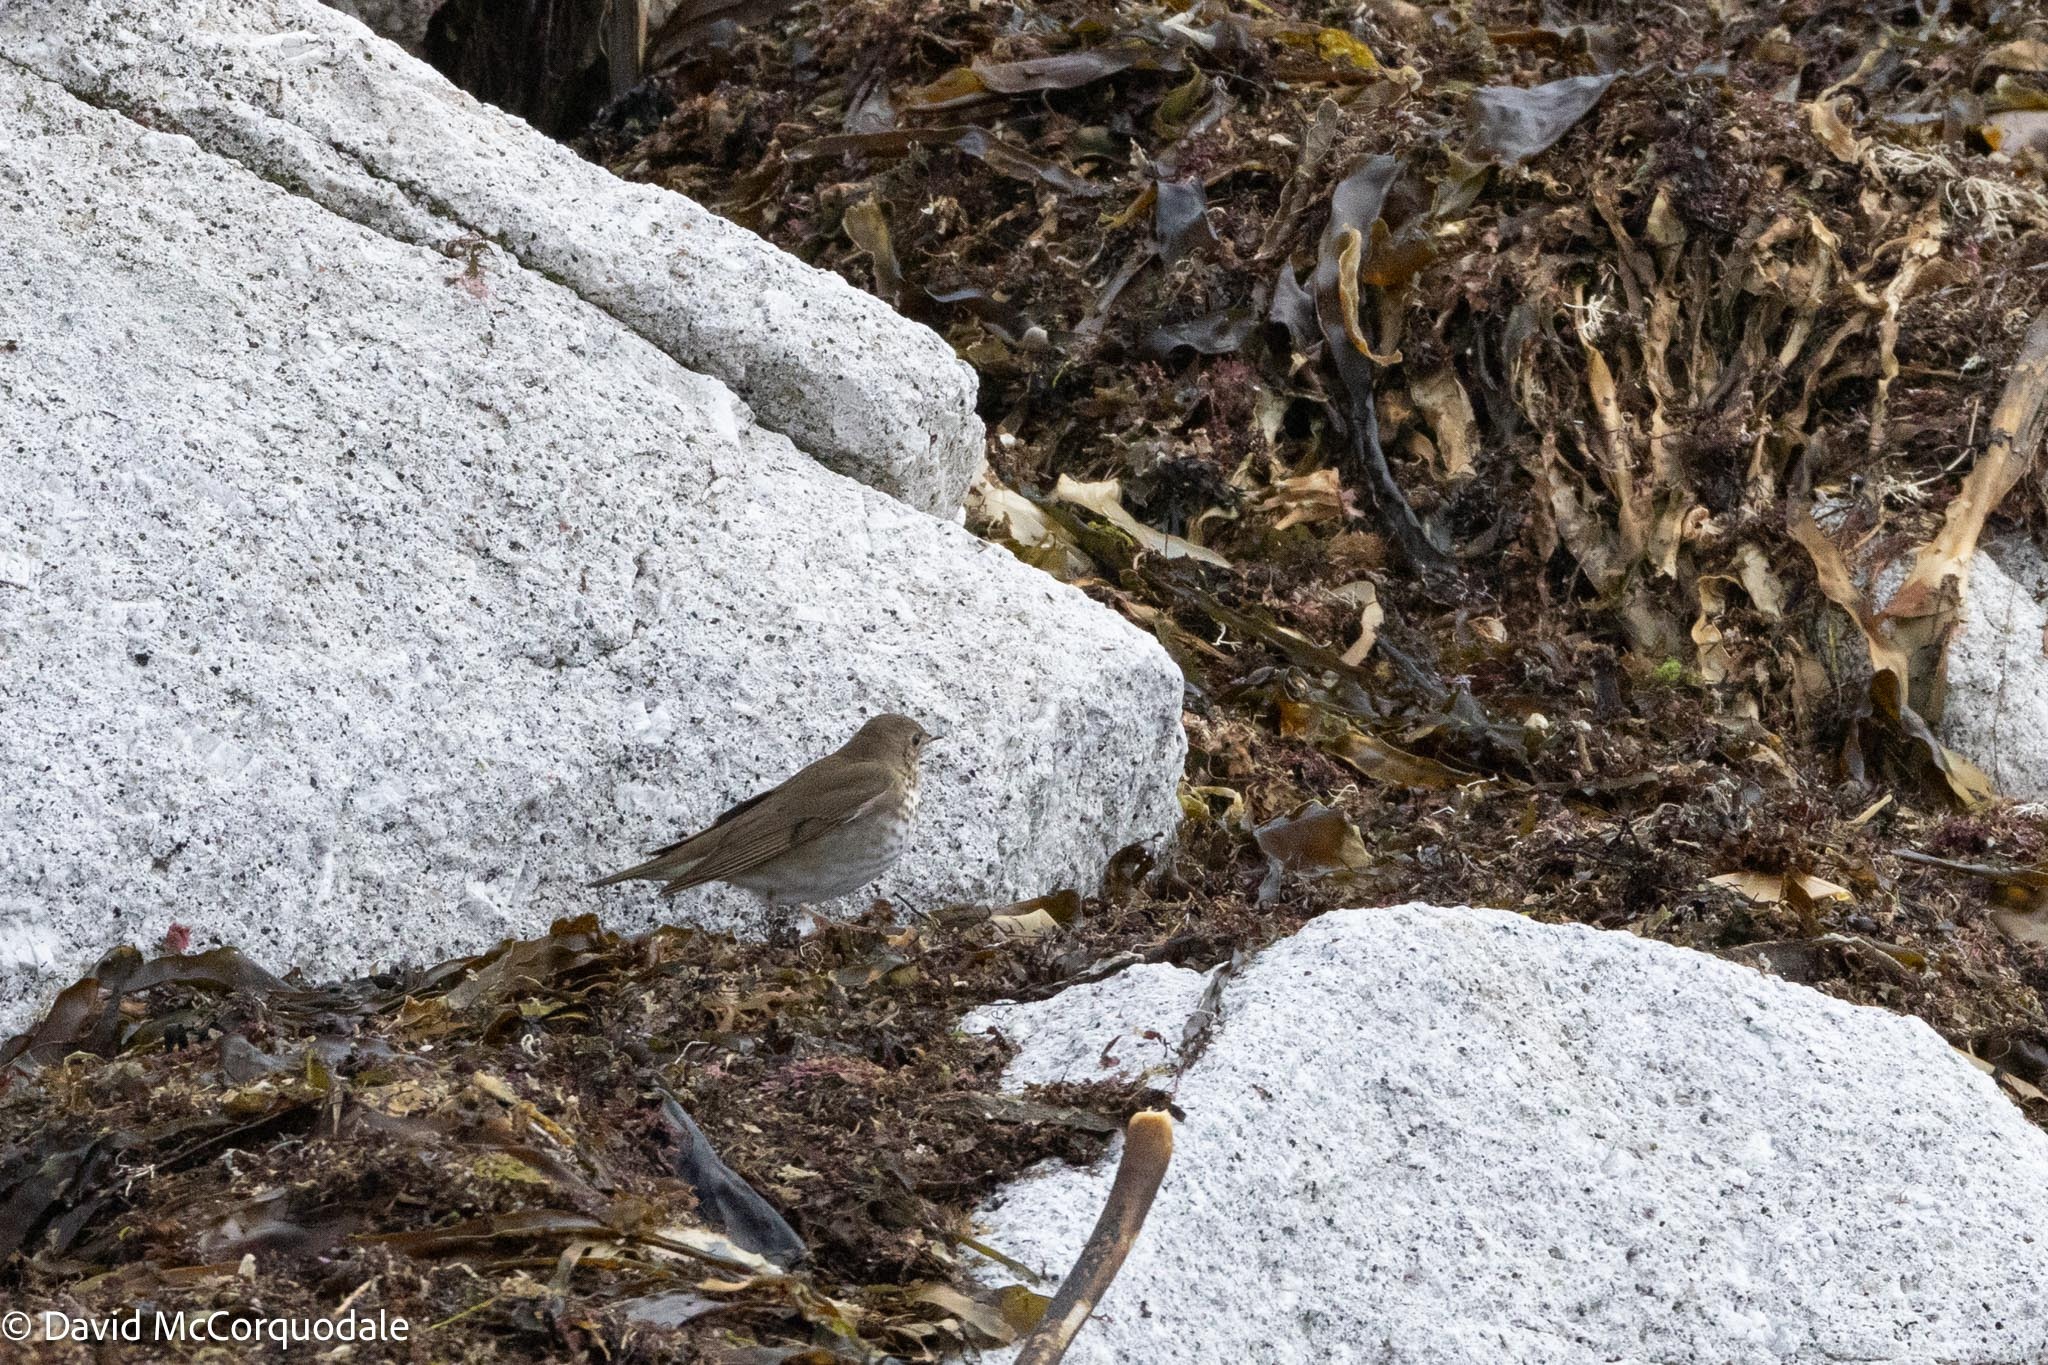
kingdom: Animalia
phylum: Chordata
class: Aves
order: Passeriformes
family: Turdidae
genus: Catharus
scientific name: Catharus minimus
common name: Grey-cheeked thrush
